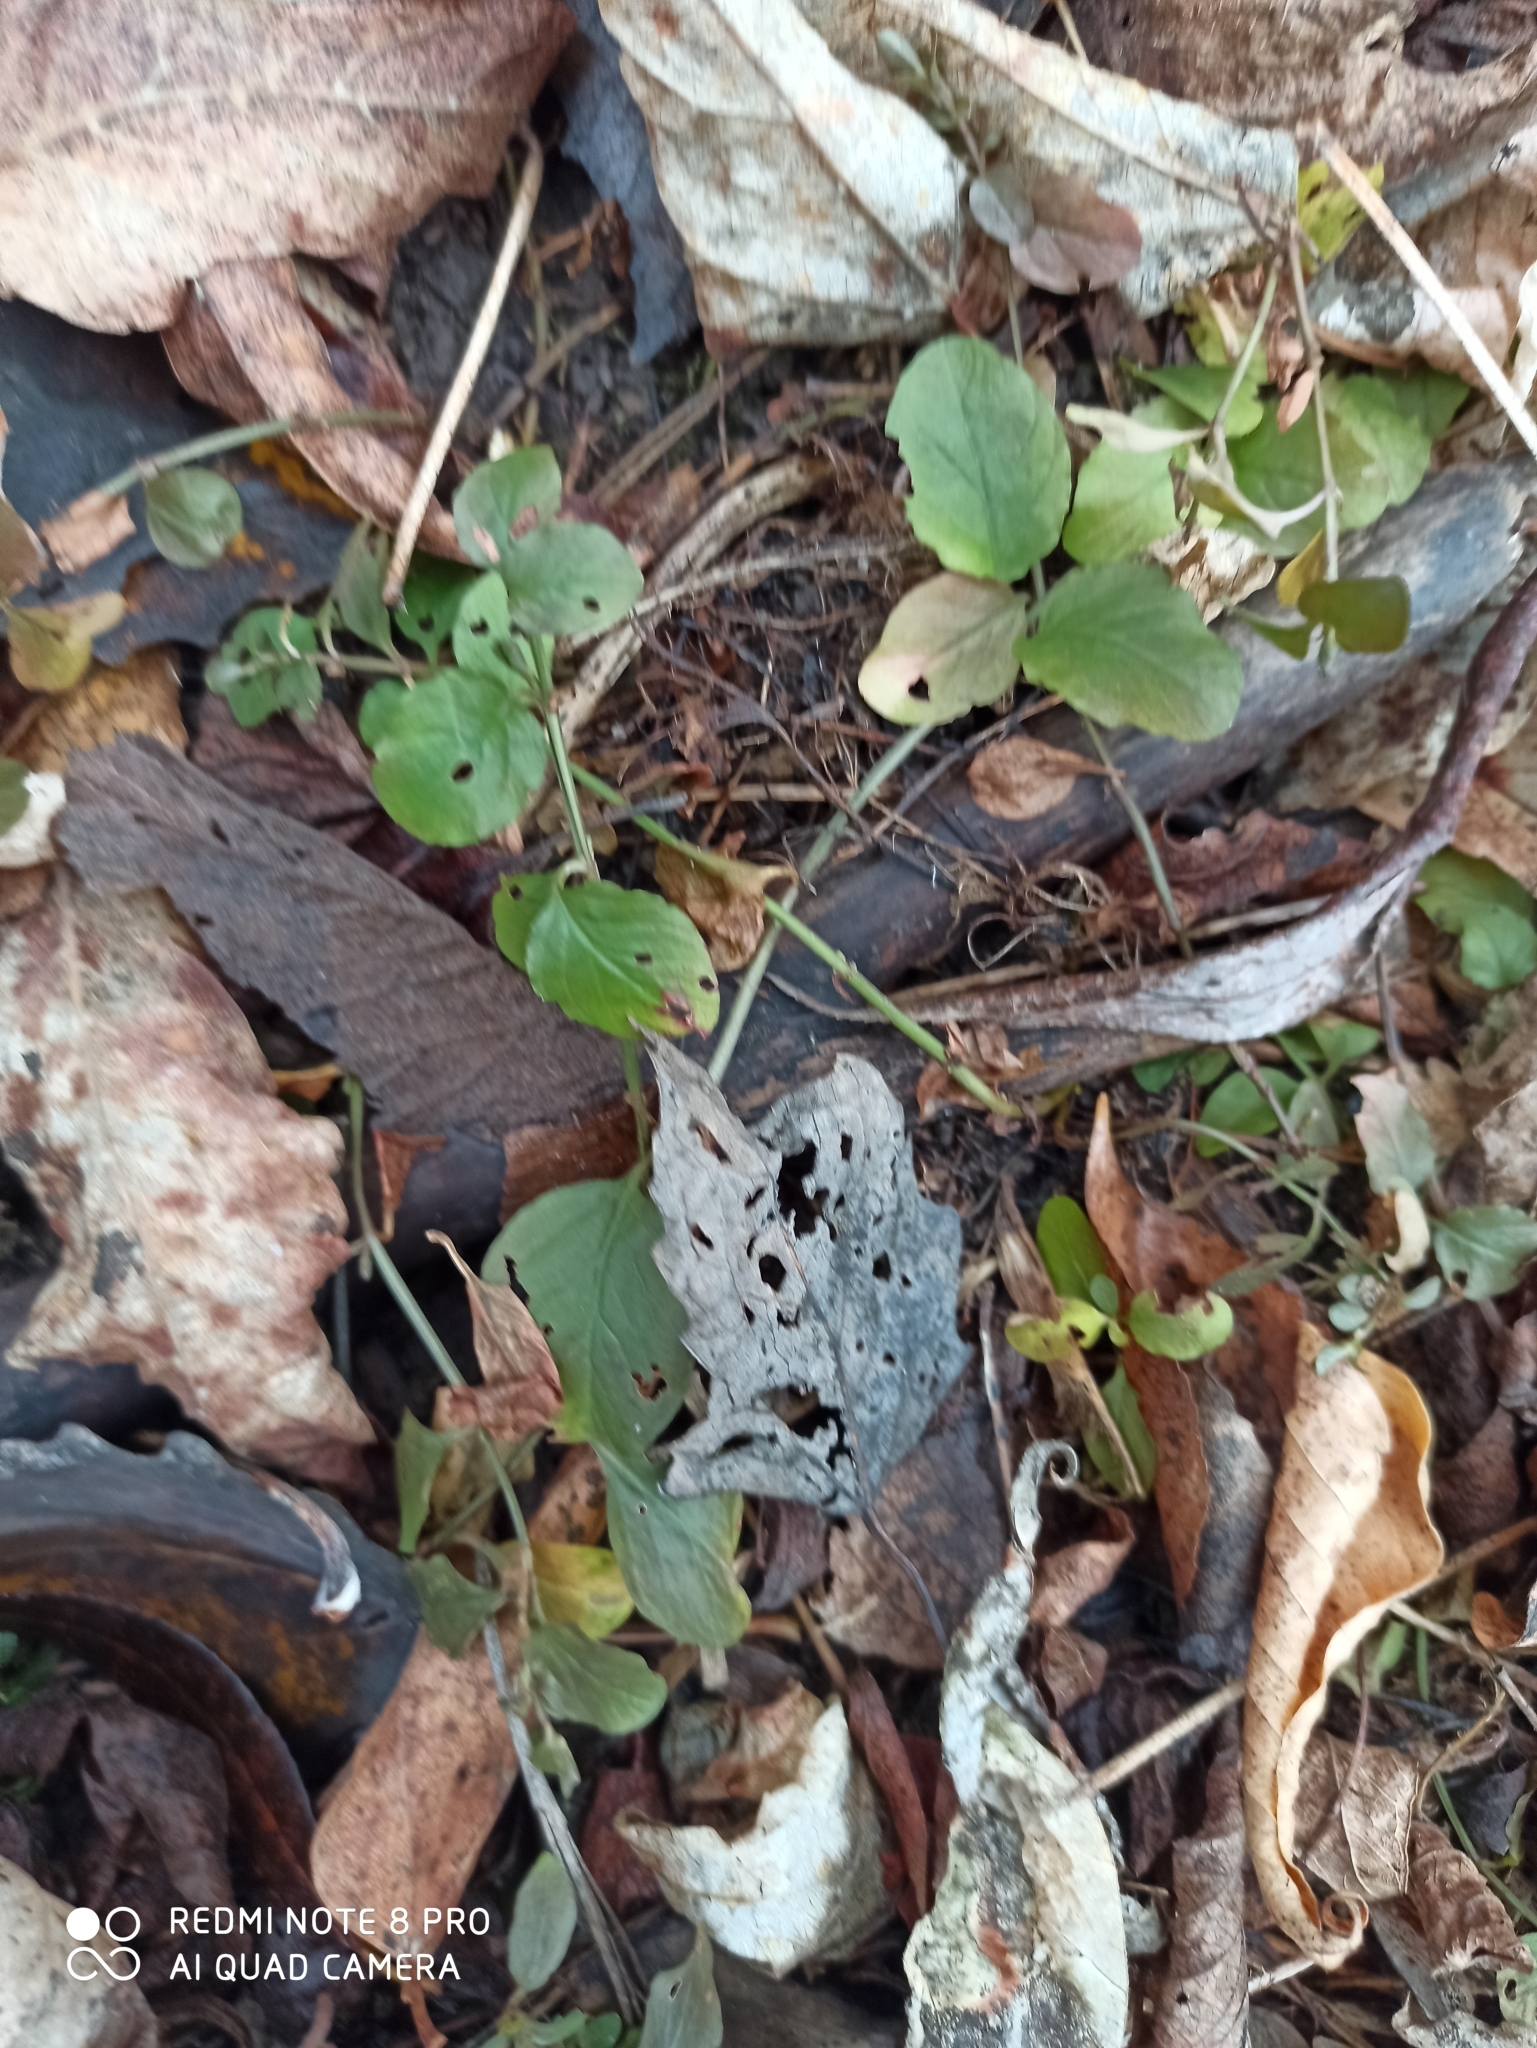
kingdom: Plantae
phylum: Tracheophyta
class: Magnoliopsida
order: Ericales
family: Primulaceae
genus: Lysimachia
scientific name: Lysimachia nummularia
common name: Moneywort
